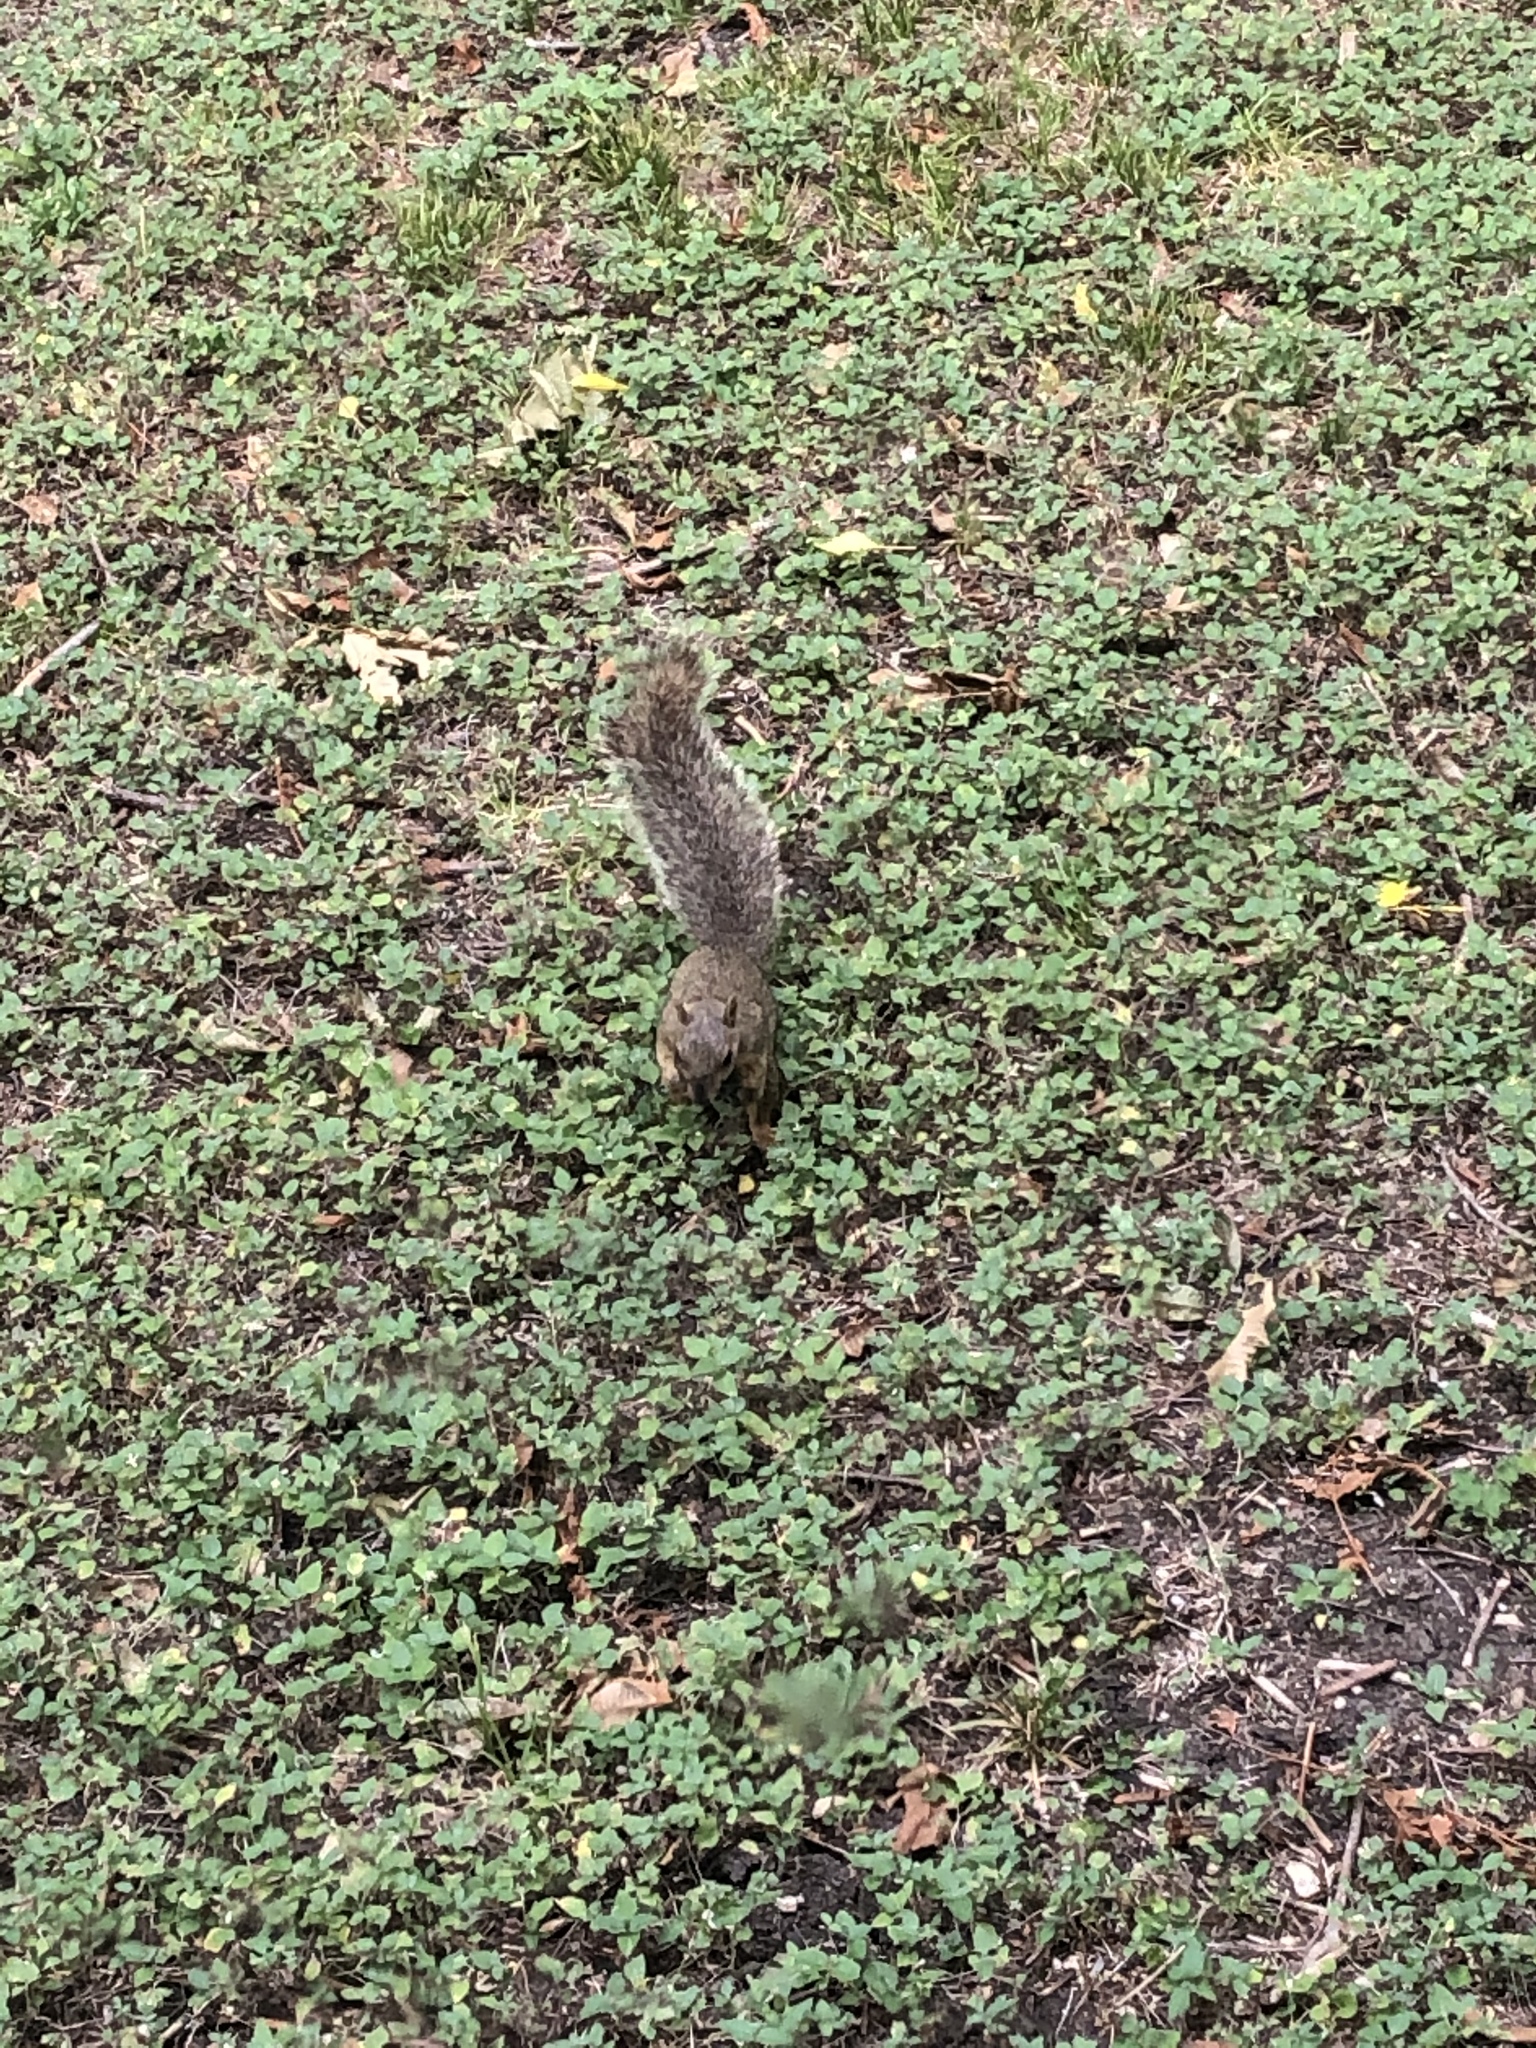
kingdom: Animalia
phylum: Chordata
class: Mammalia
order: Rodentia
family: Sciuridae
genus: Sciurus
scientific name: Sciurus niger
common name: Fox squirrel
